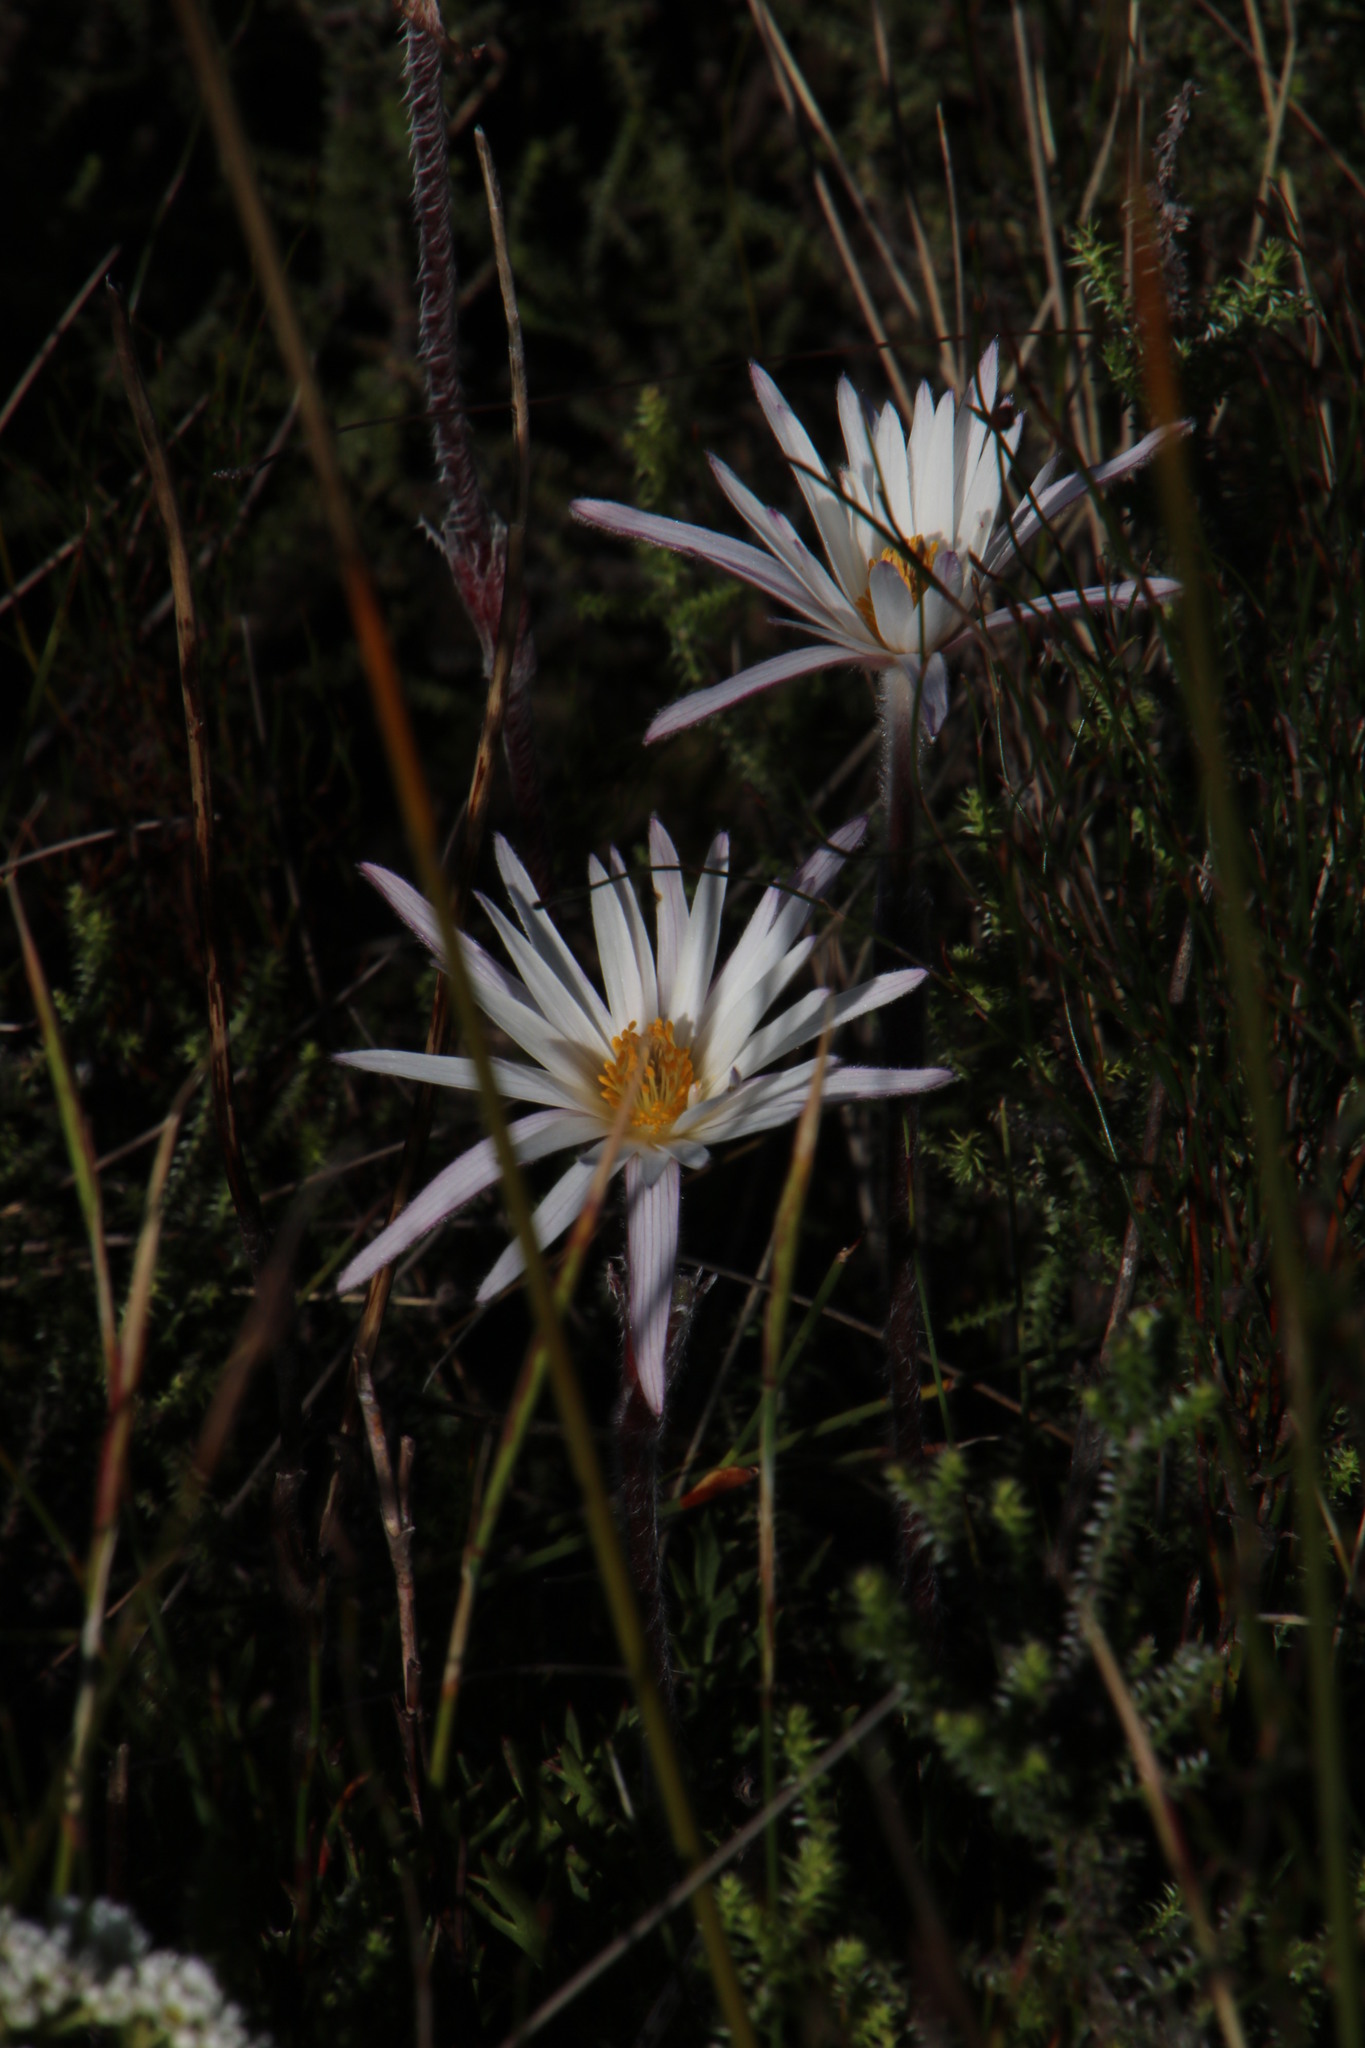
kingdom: Plantae
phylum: Tracheophyta
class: Magnoliopsida
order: Ranunculales
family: Ranunculaceae
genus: Knowltonia
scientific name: Knowltonia tenuifolia
